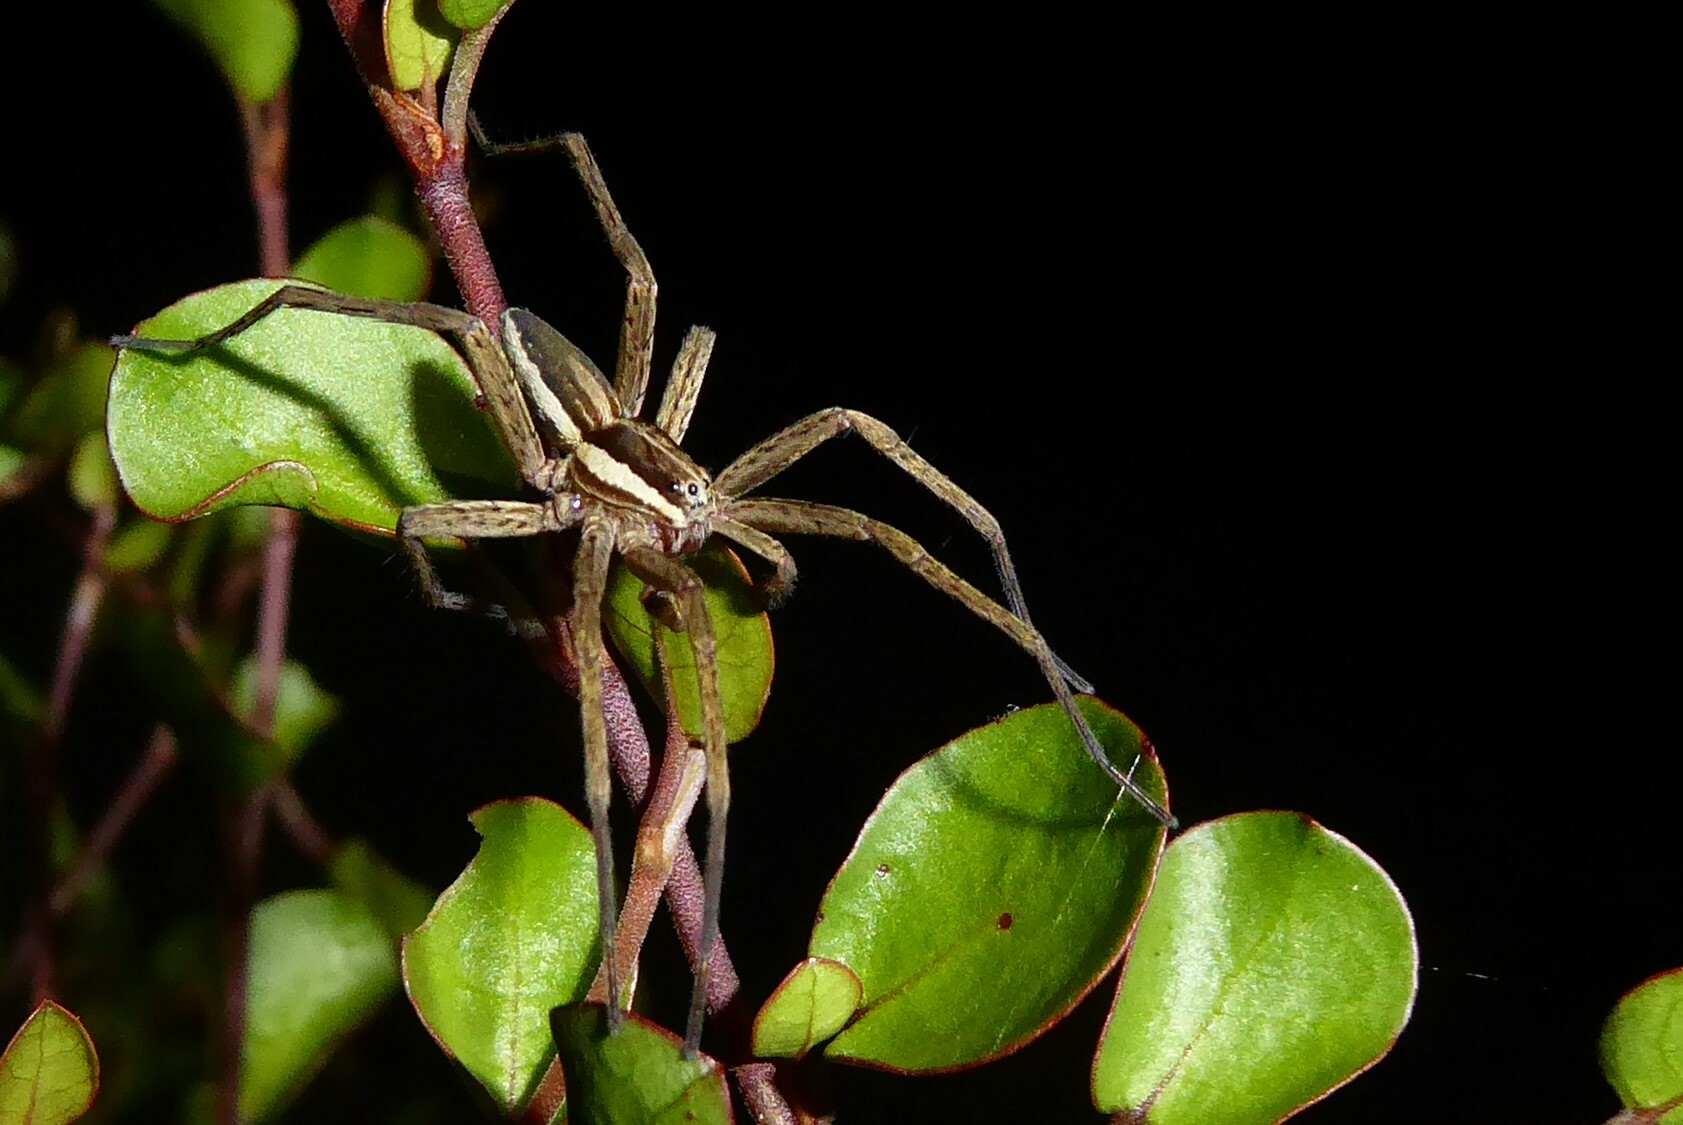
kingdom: Animalia
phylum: Arthropoda
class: Arachnida
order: Araneae
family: Pisauridae
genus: Dolomedes
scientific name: Dolomedes minor
